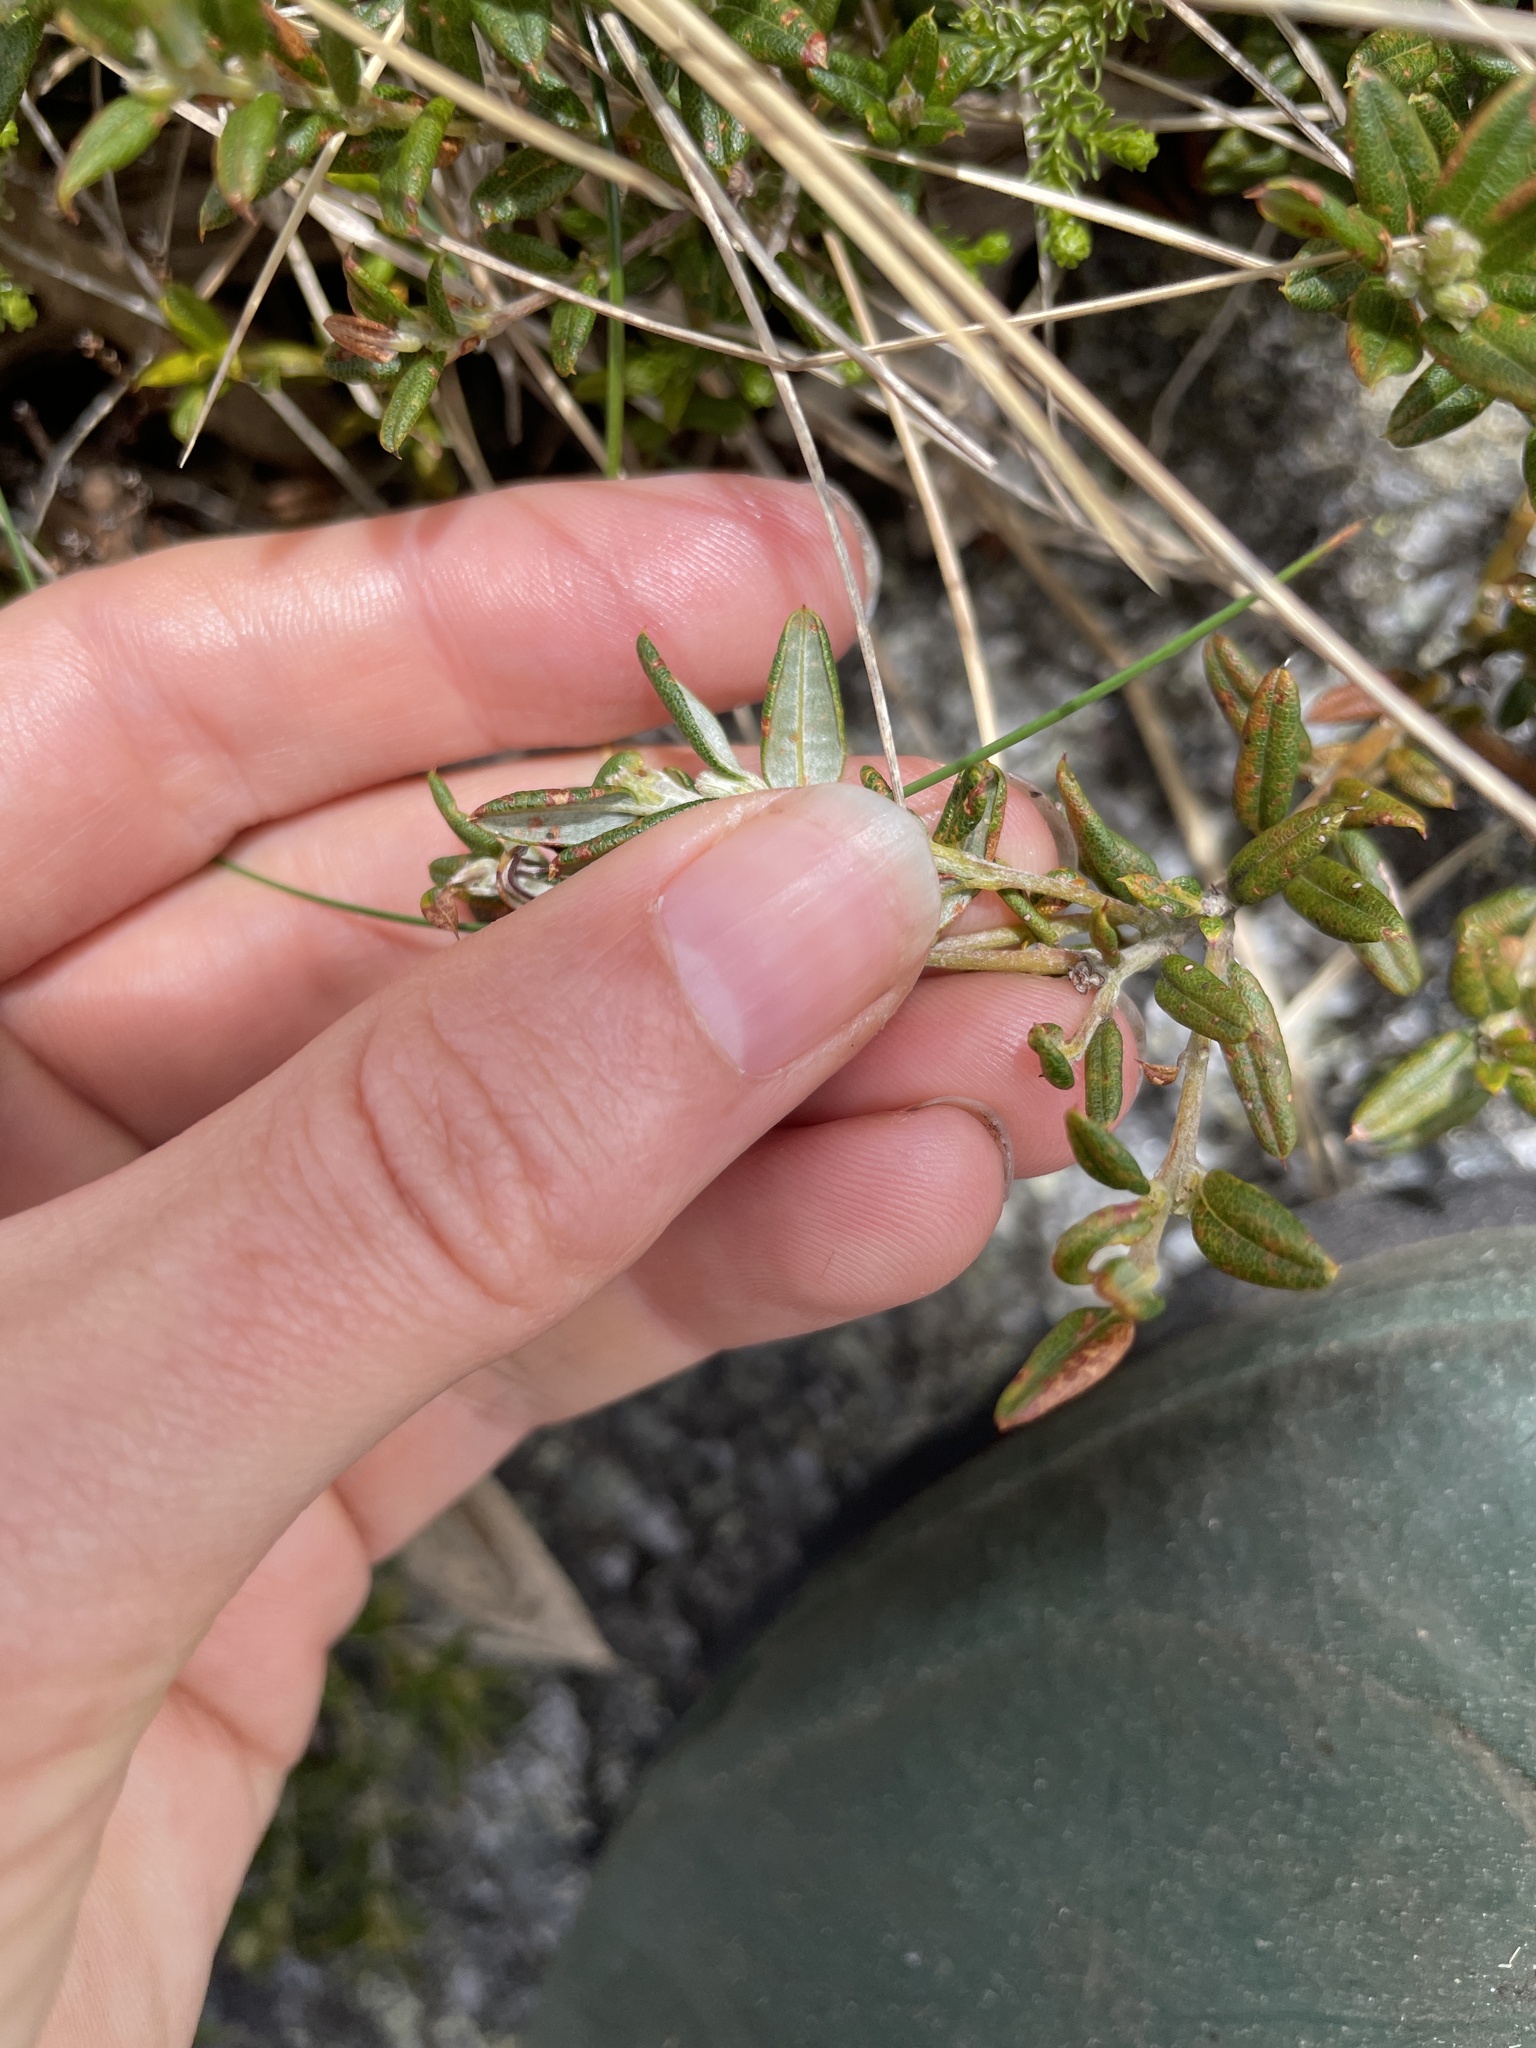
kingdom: Plantae
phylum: Tracheophyta
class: Magnoliopsida
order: Fabales
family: Fabaceae
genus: Oxylobium
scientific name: Oxylobium ellipticum
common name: Golden shaggy-pea
